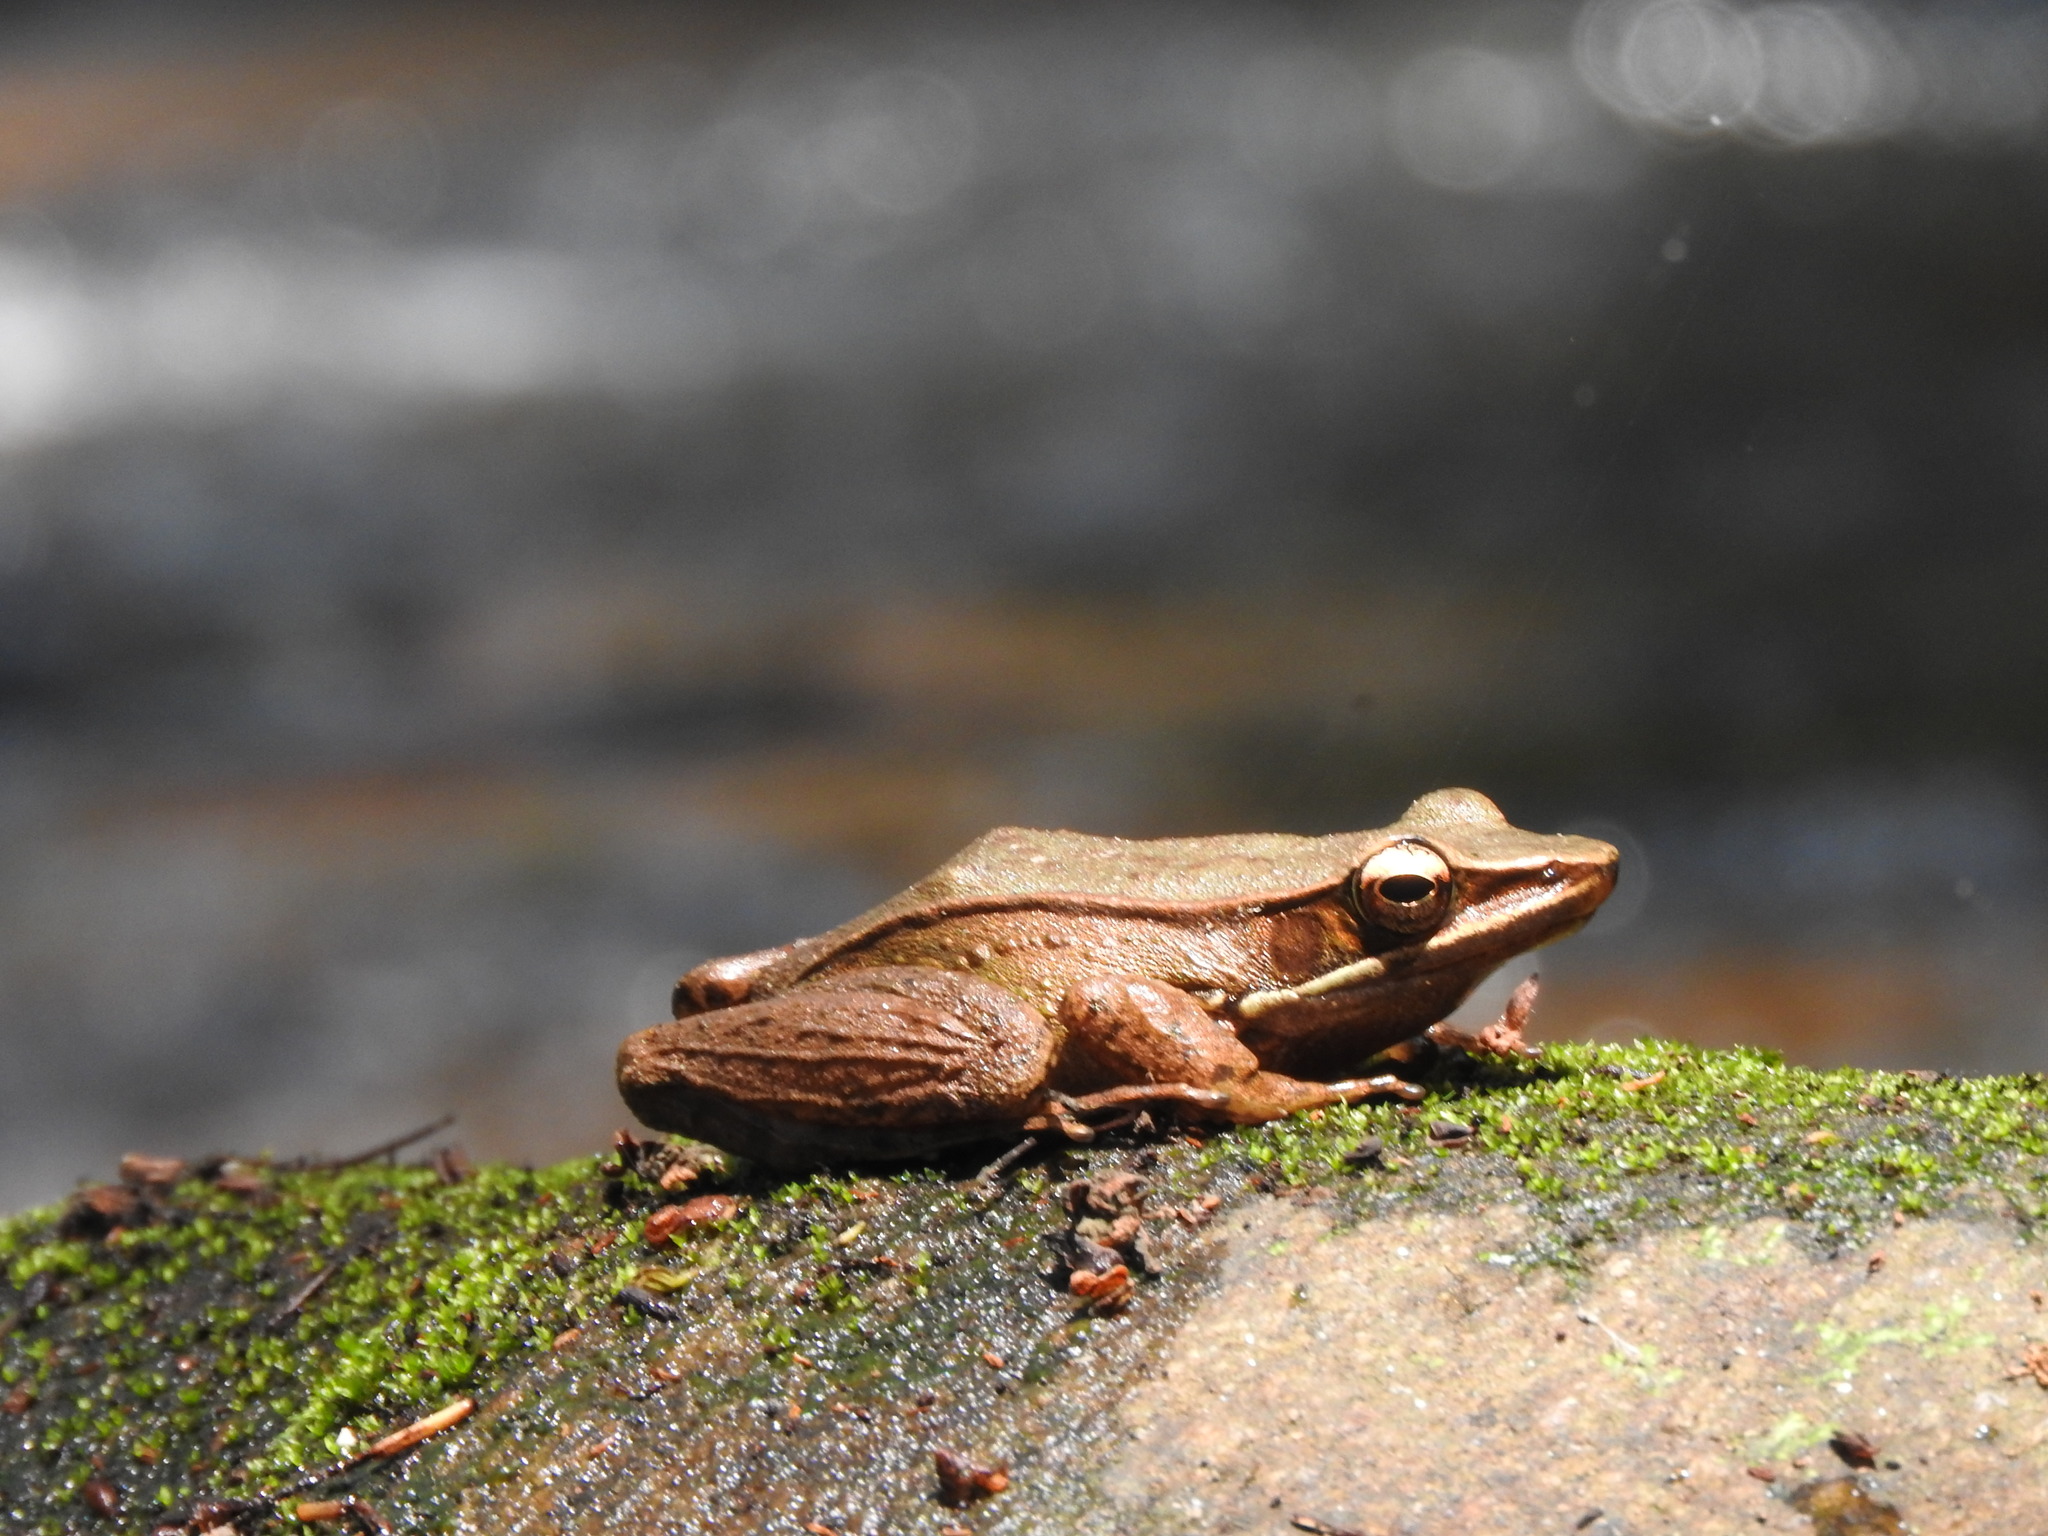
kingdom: Animalia
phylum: Chordata
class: Amphibia
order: Anura
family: Ranidae
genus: Indosylvirana
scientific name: Indosylvirana sreeni
